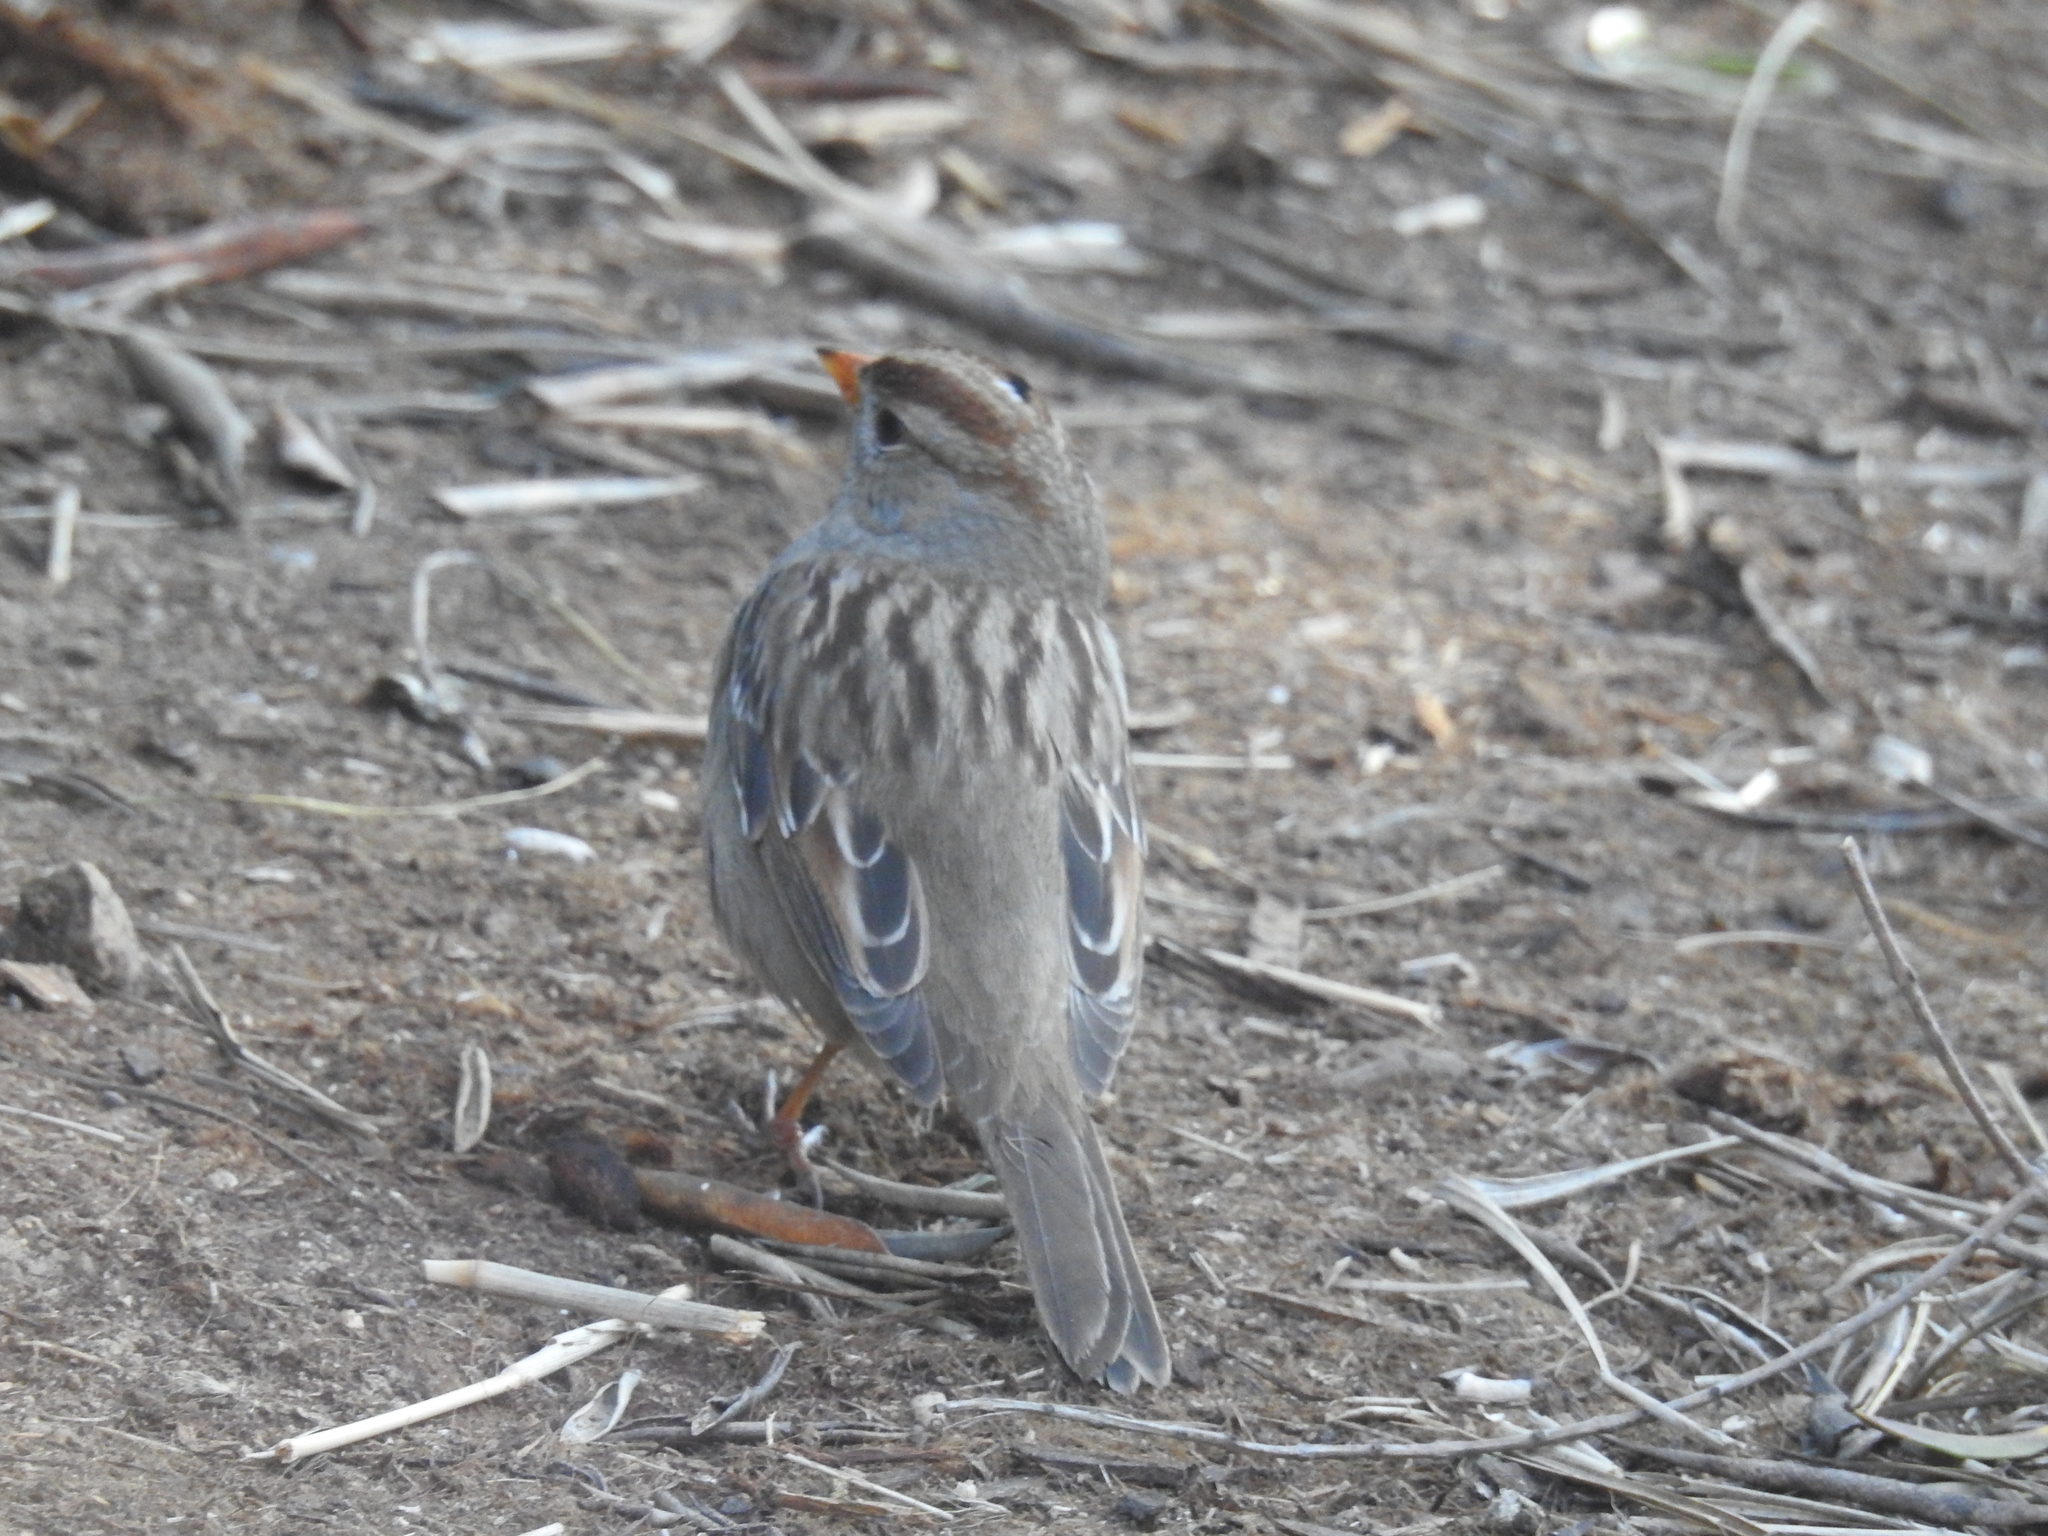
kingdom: Animalia
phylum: Chordata
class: Aves
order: Passeriformes
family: Passerellidae
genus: Zonotrichia
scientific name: Zonotrichia leucophrys
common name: White-crowned sparrow
